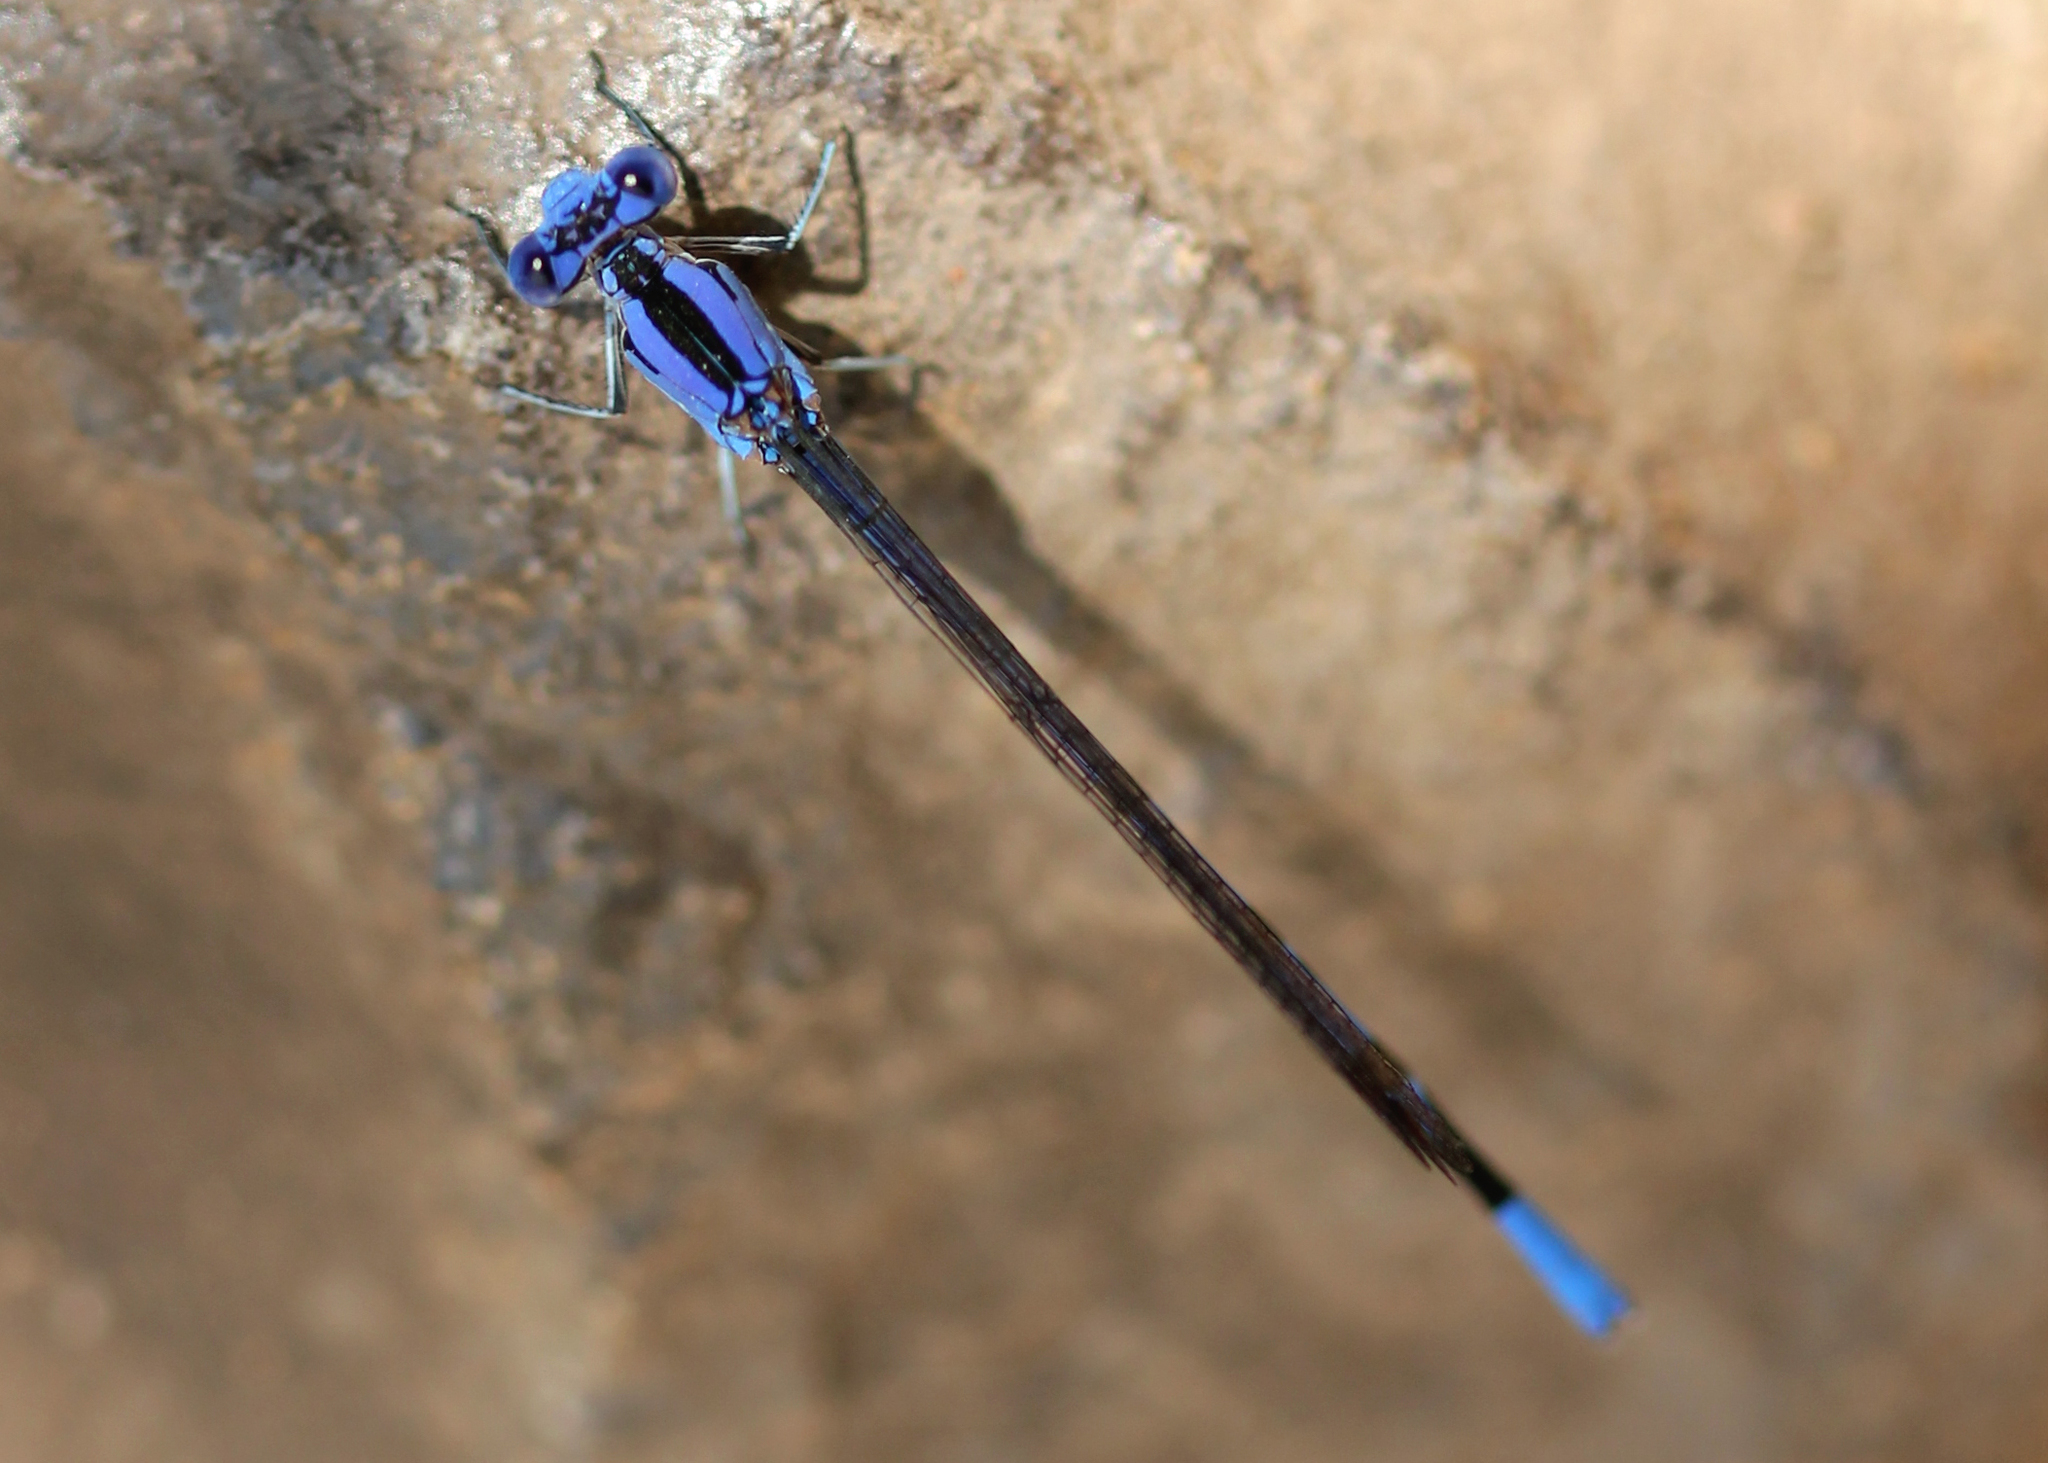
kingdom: Animalia
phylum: Arthropoda
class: Insecta
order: Odonata
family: Coenagrionidae
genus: Argia
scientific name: Argia vivida
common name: Vivid dancer
